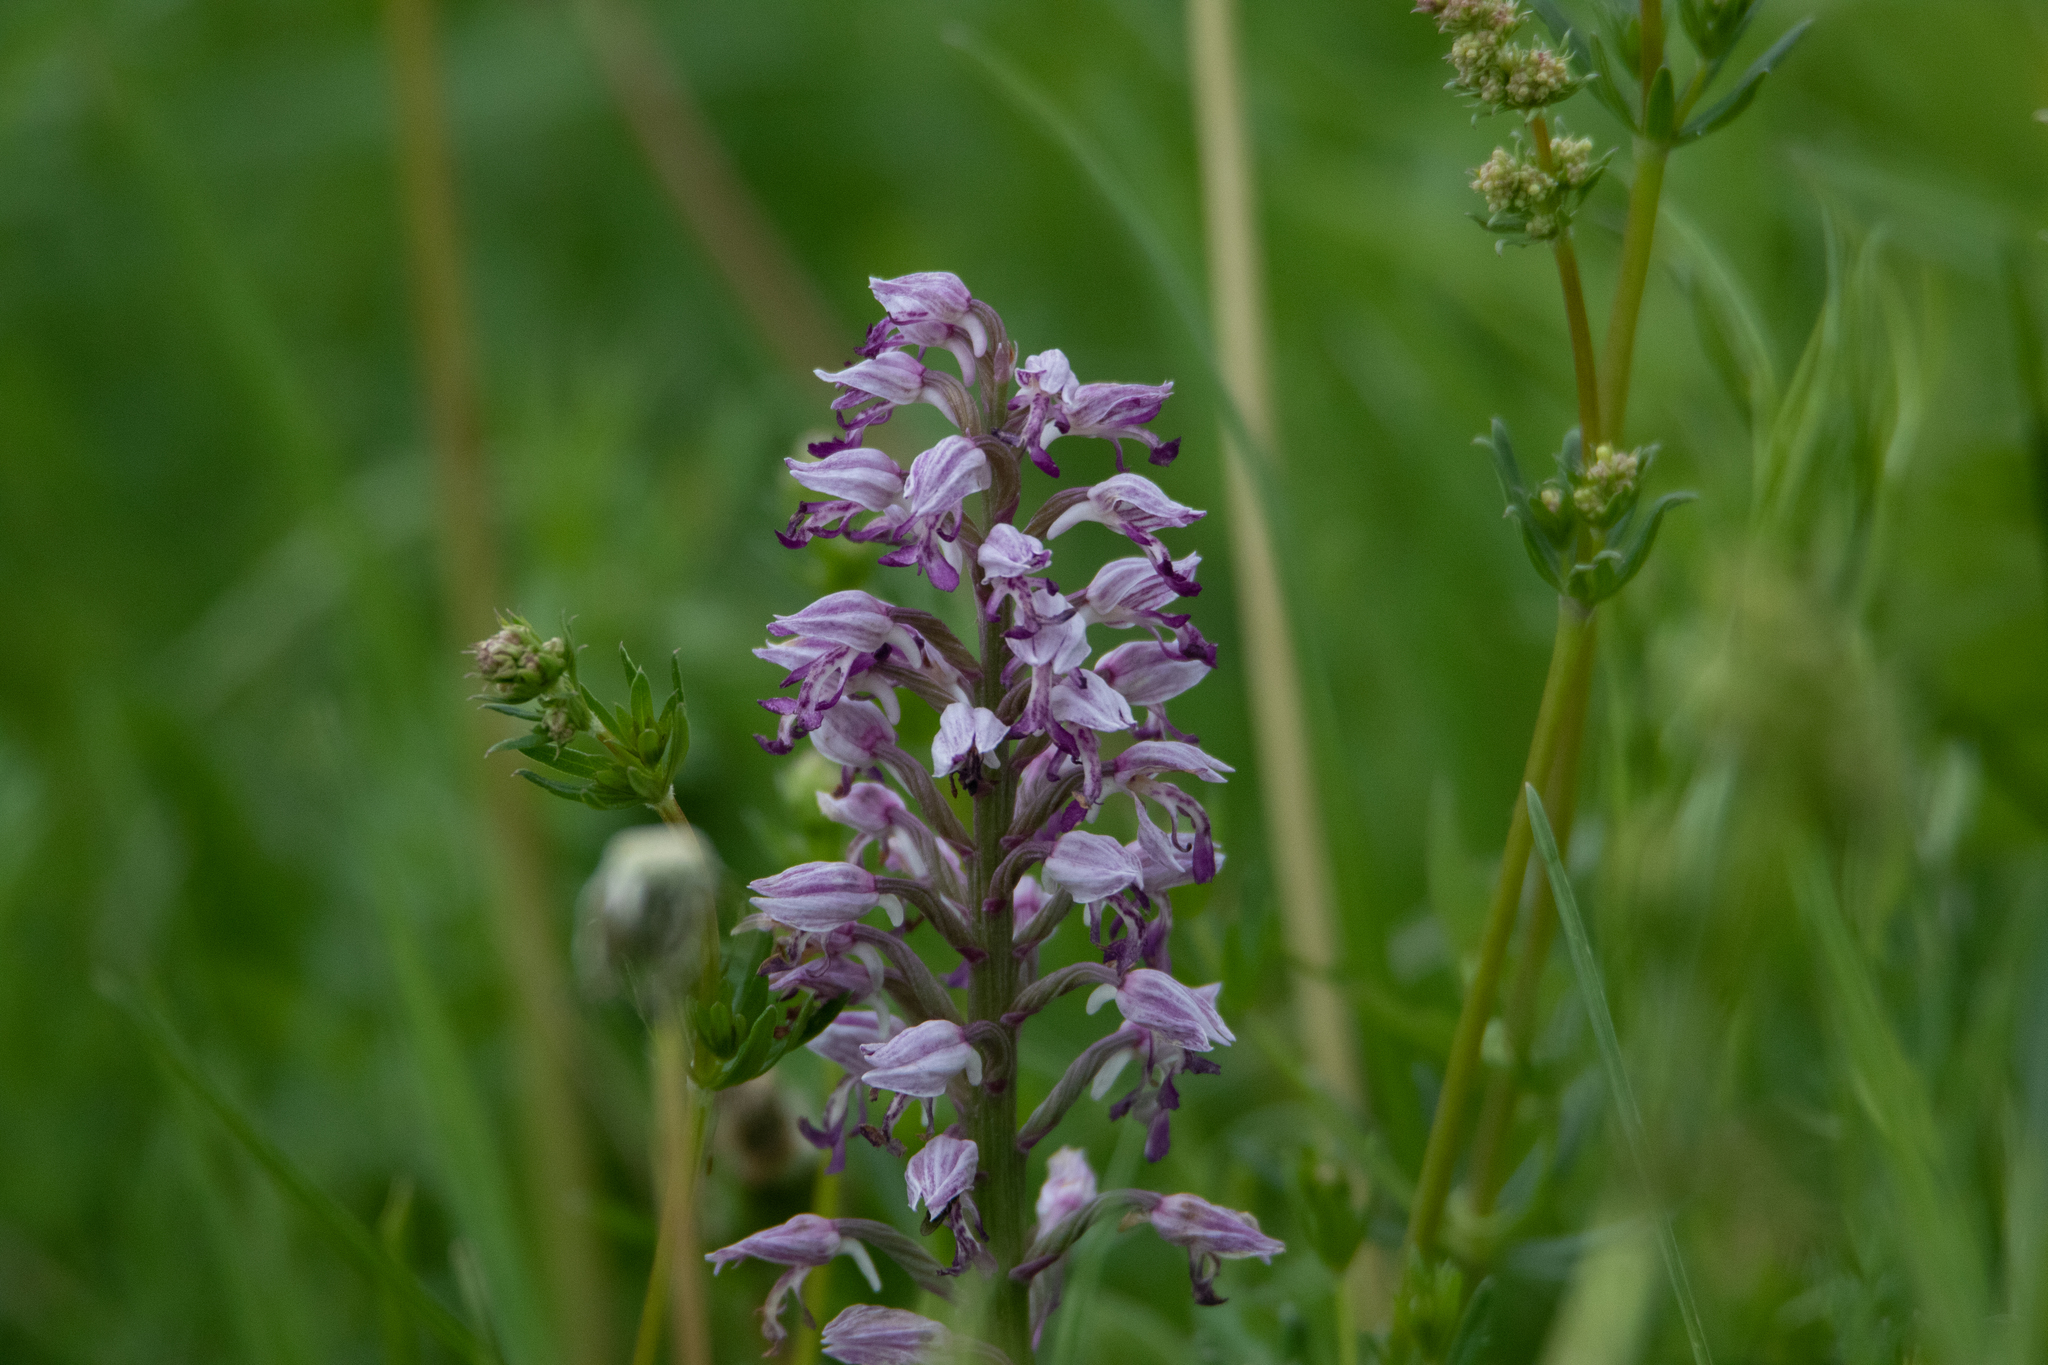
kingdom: Plantae
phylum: Tracheophyta
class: Liliopsida
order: Asparagales
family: Orchidaceae
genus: Orchis
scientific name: Orchis militaris
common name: Military orchid
